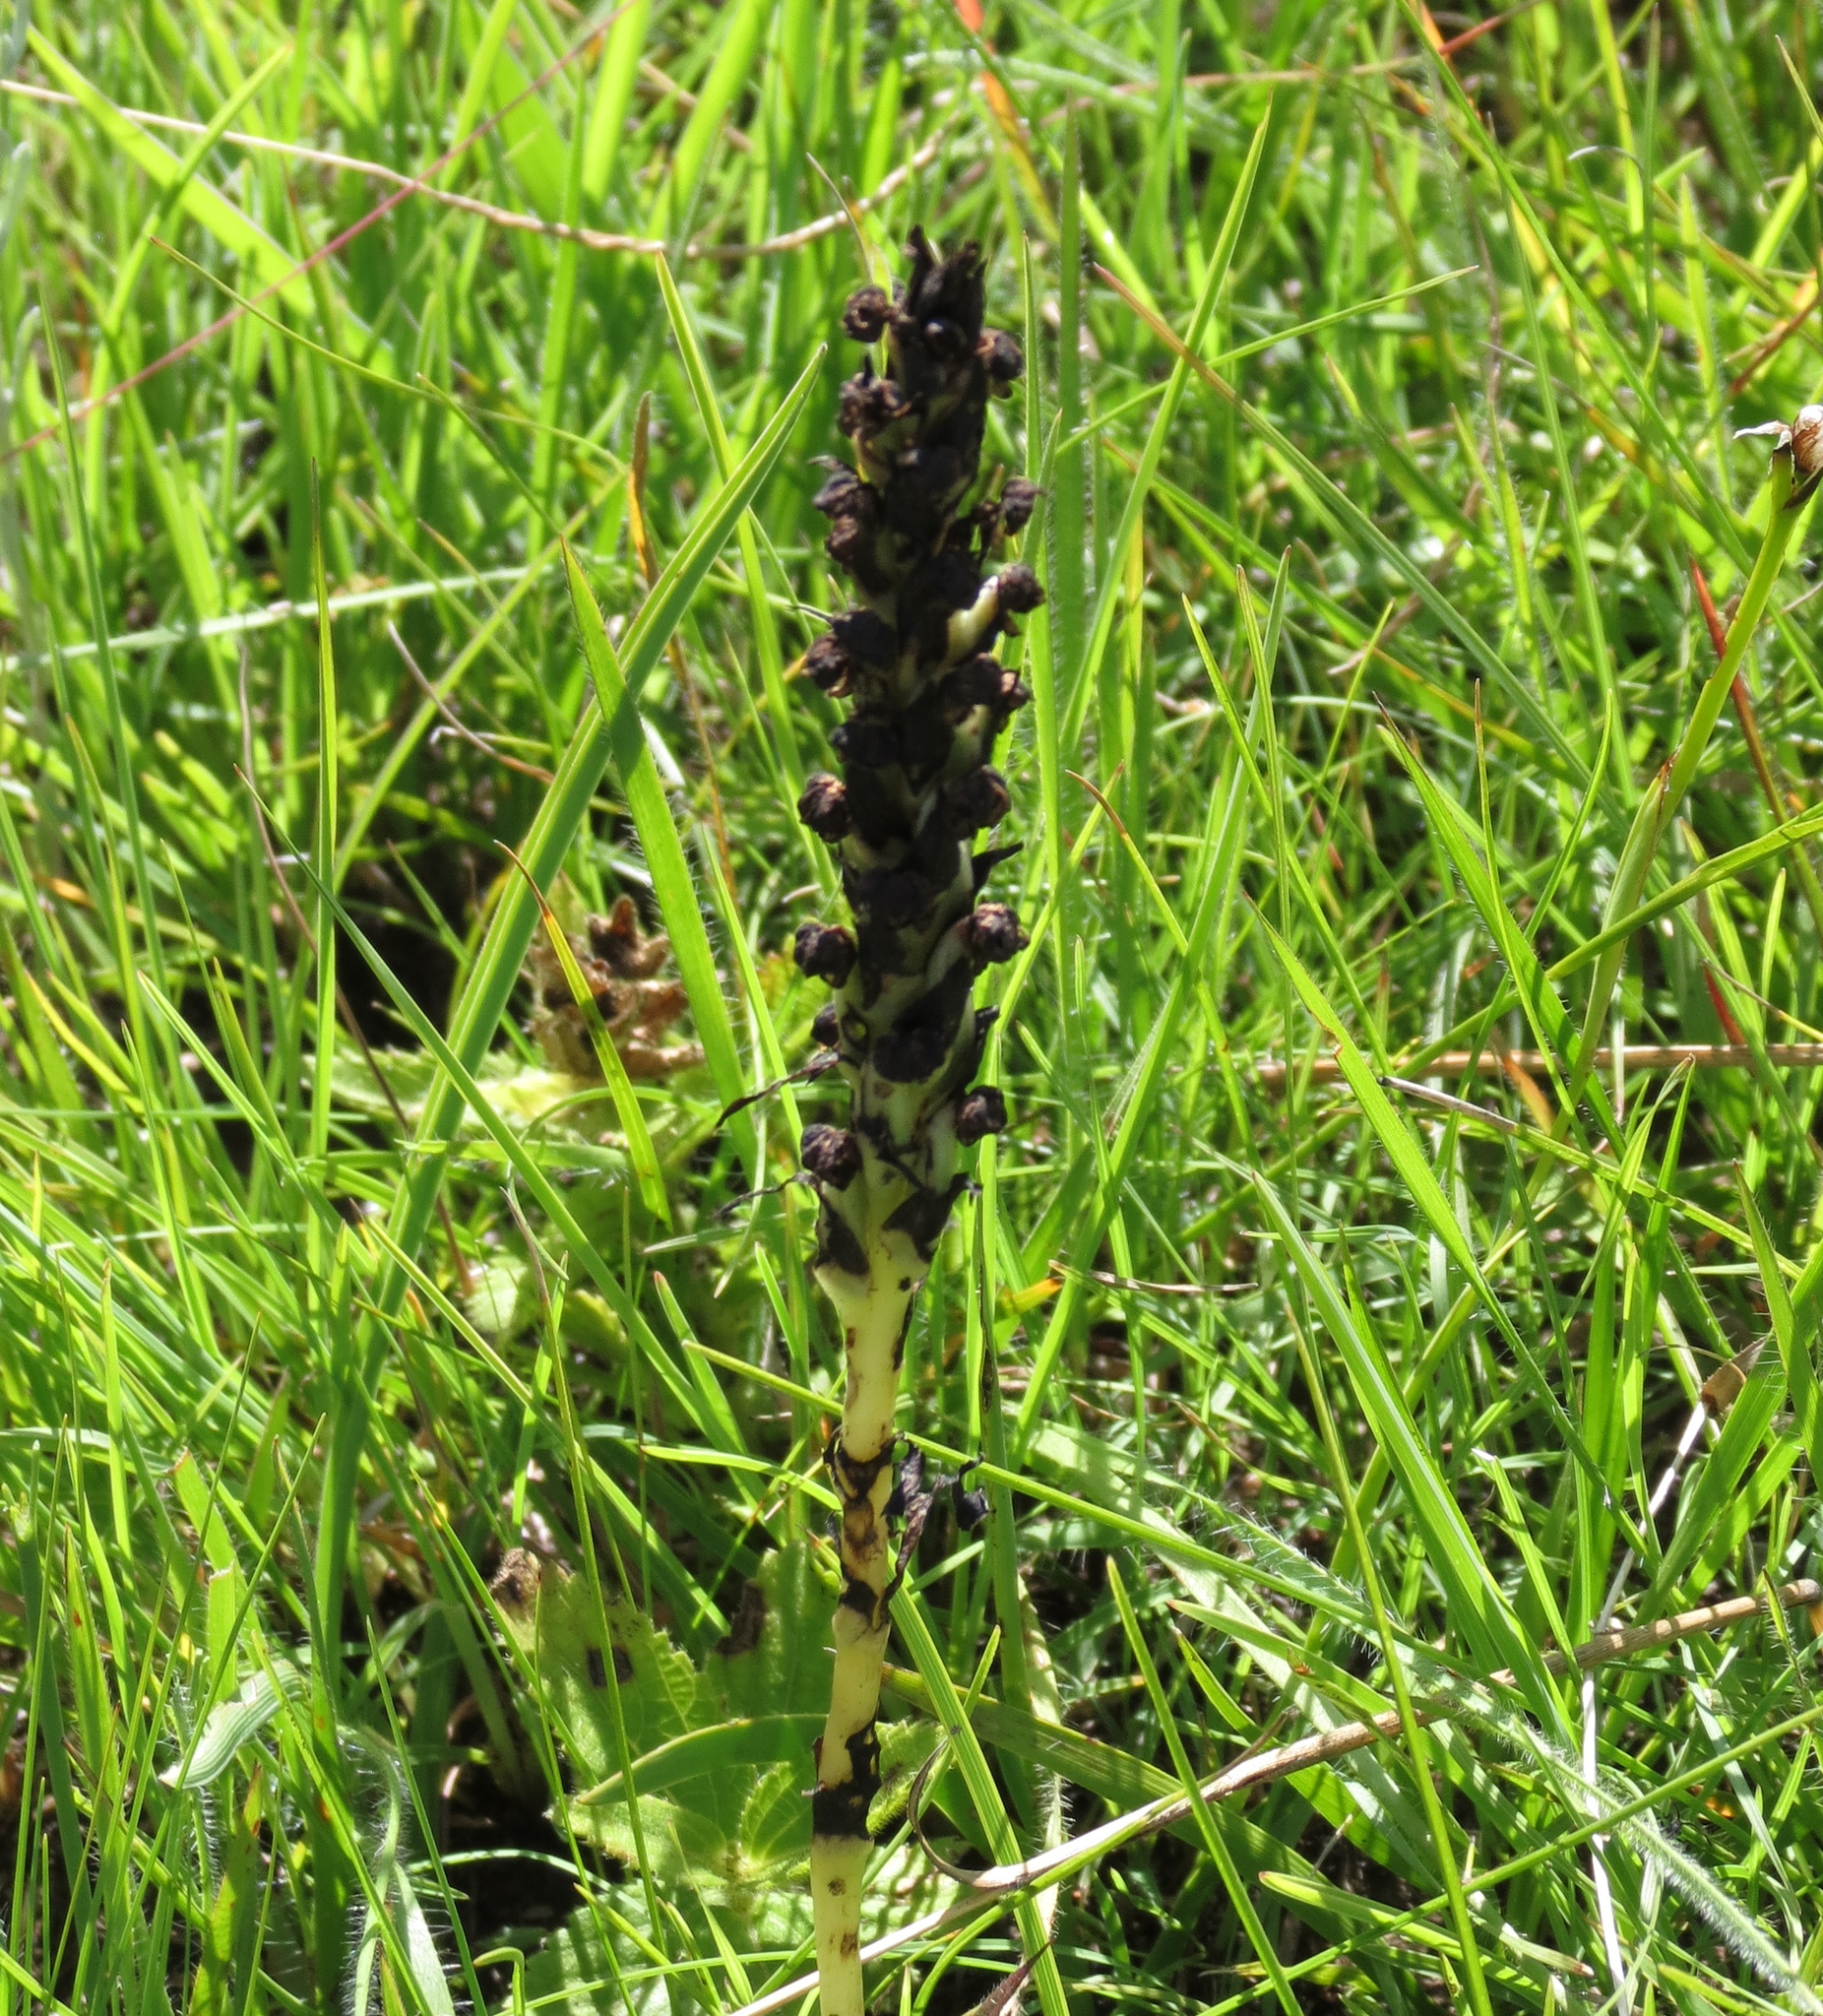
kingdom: Plantae
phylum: Tracheophyta
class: Liliopsida
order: Asparagales
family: Orchidaceae
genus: Corycium
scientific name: Corycium nigrescens
